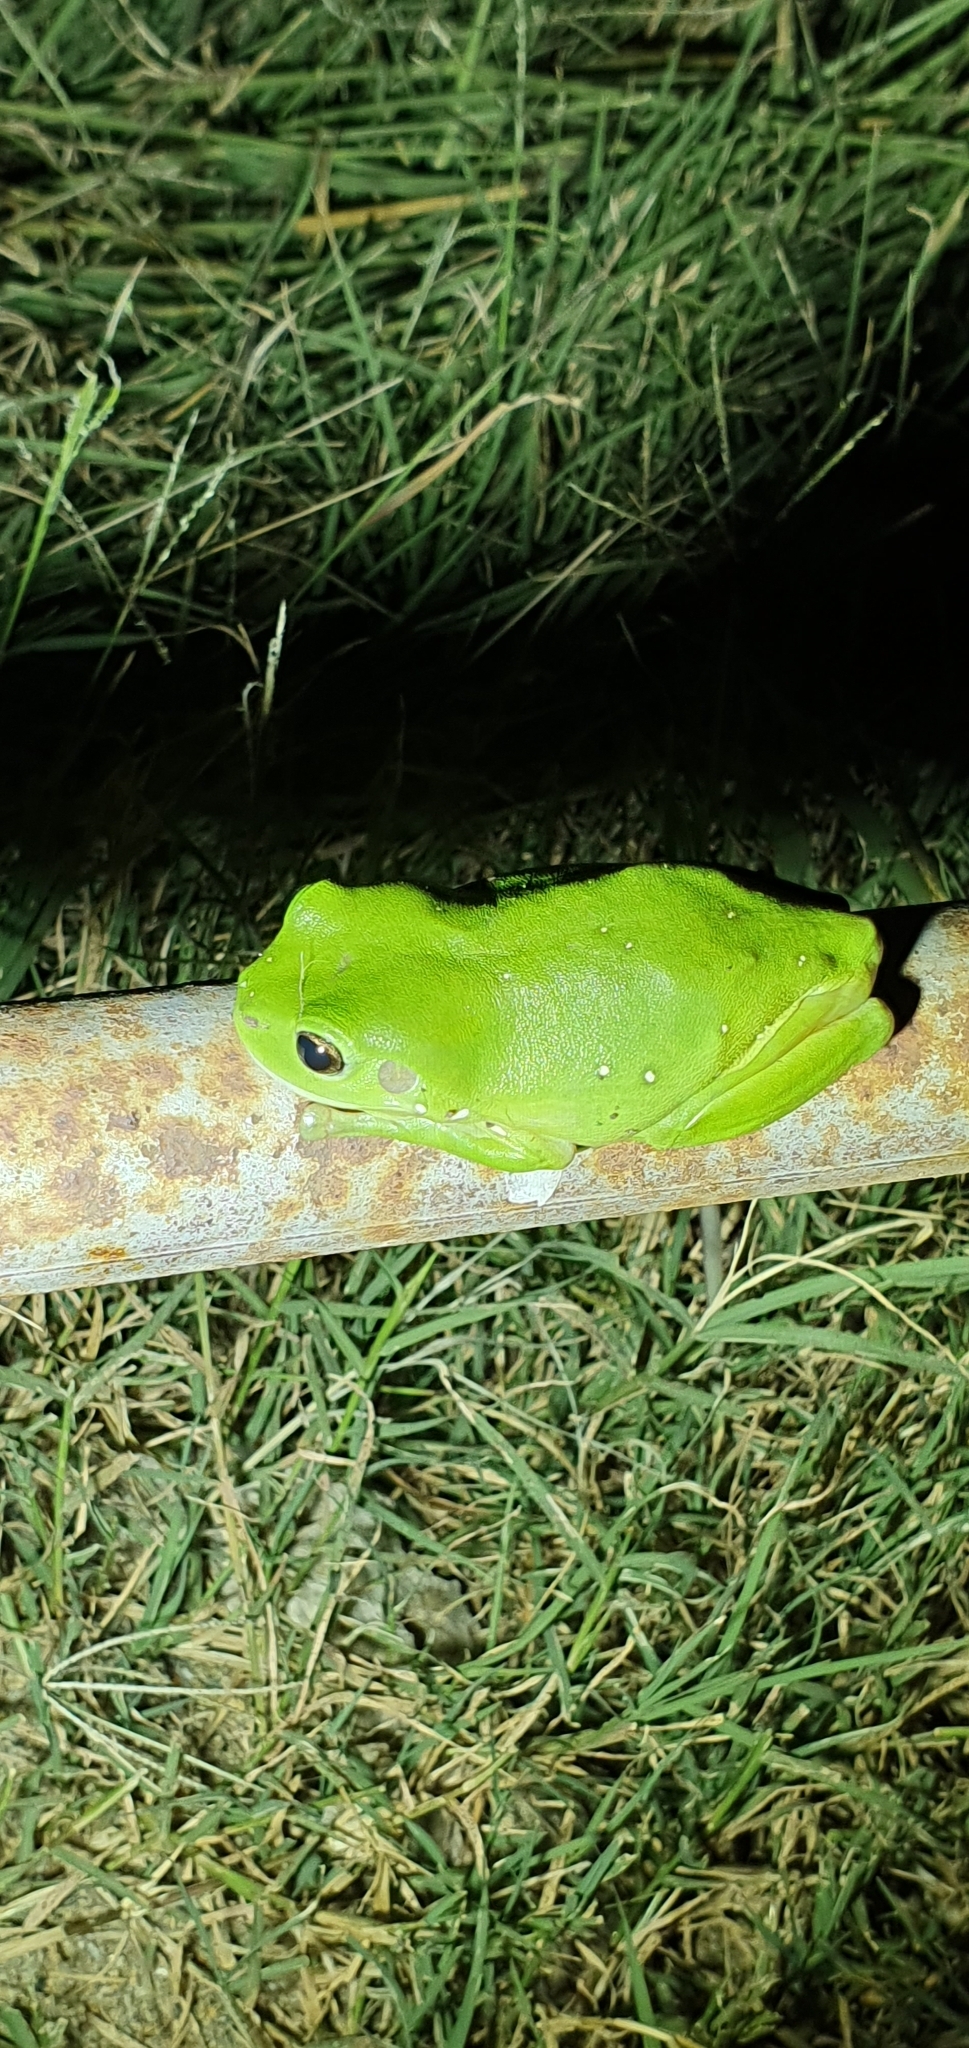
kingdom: Animalia
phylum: Chordata
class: Amphibia
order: Anura
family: Pelodryadidae
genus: Ranoidea
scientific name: Ranoidea caerulea
